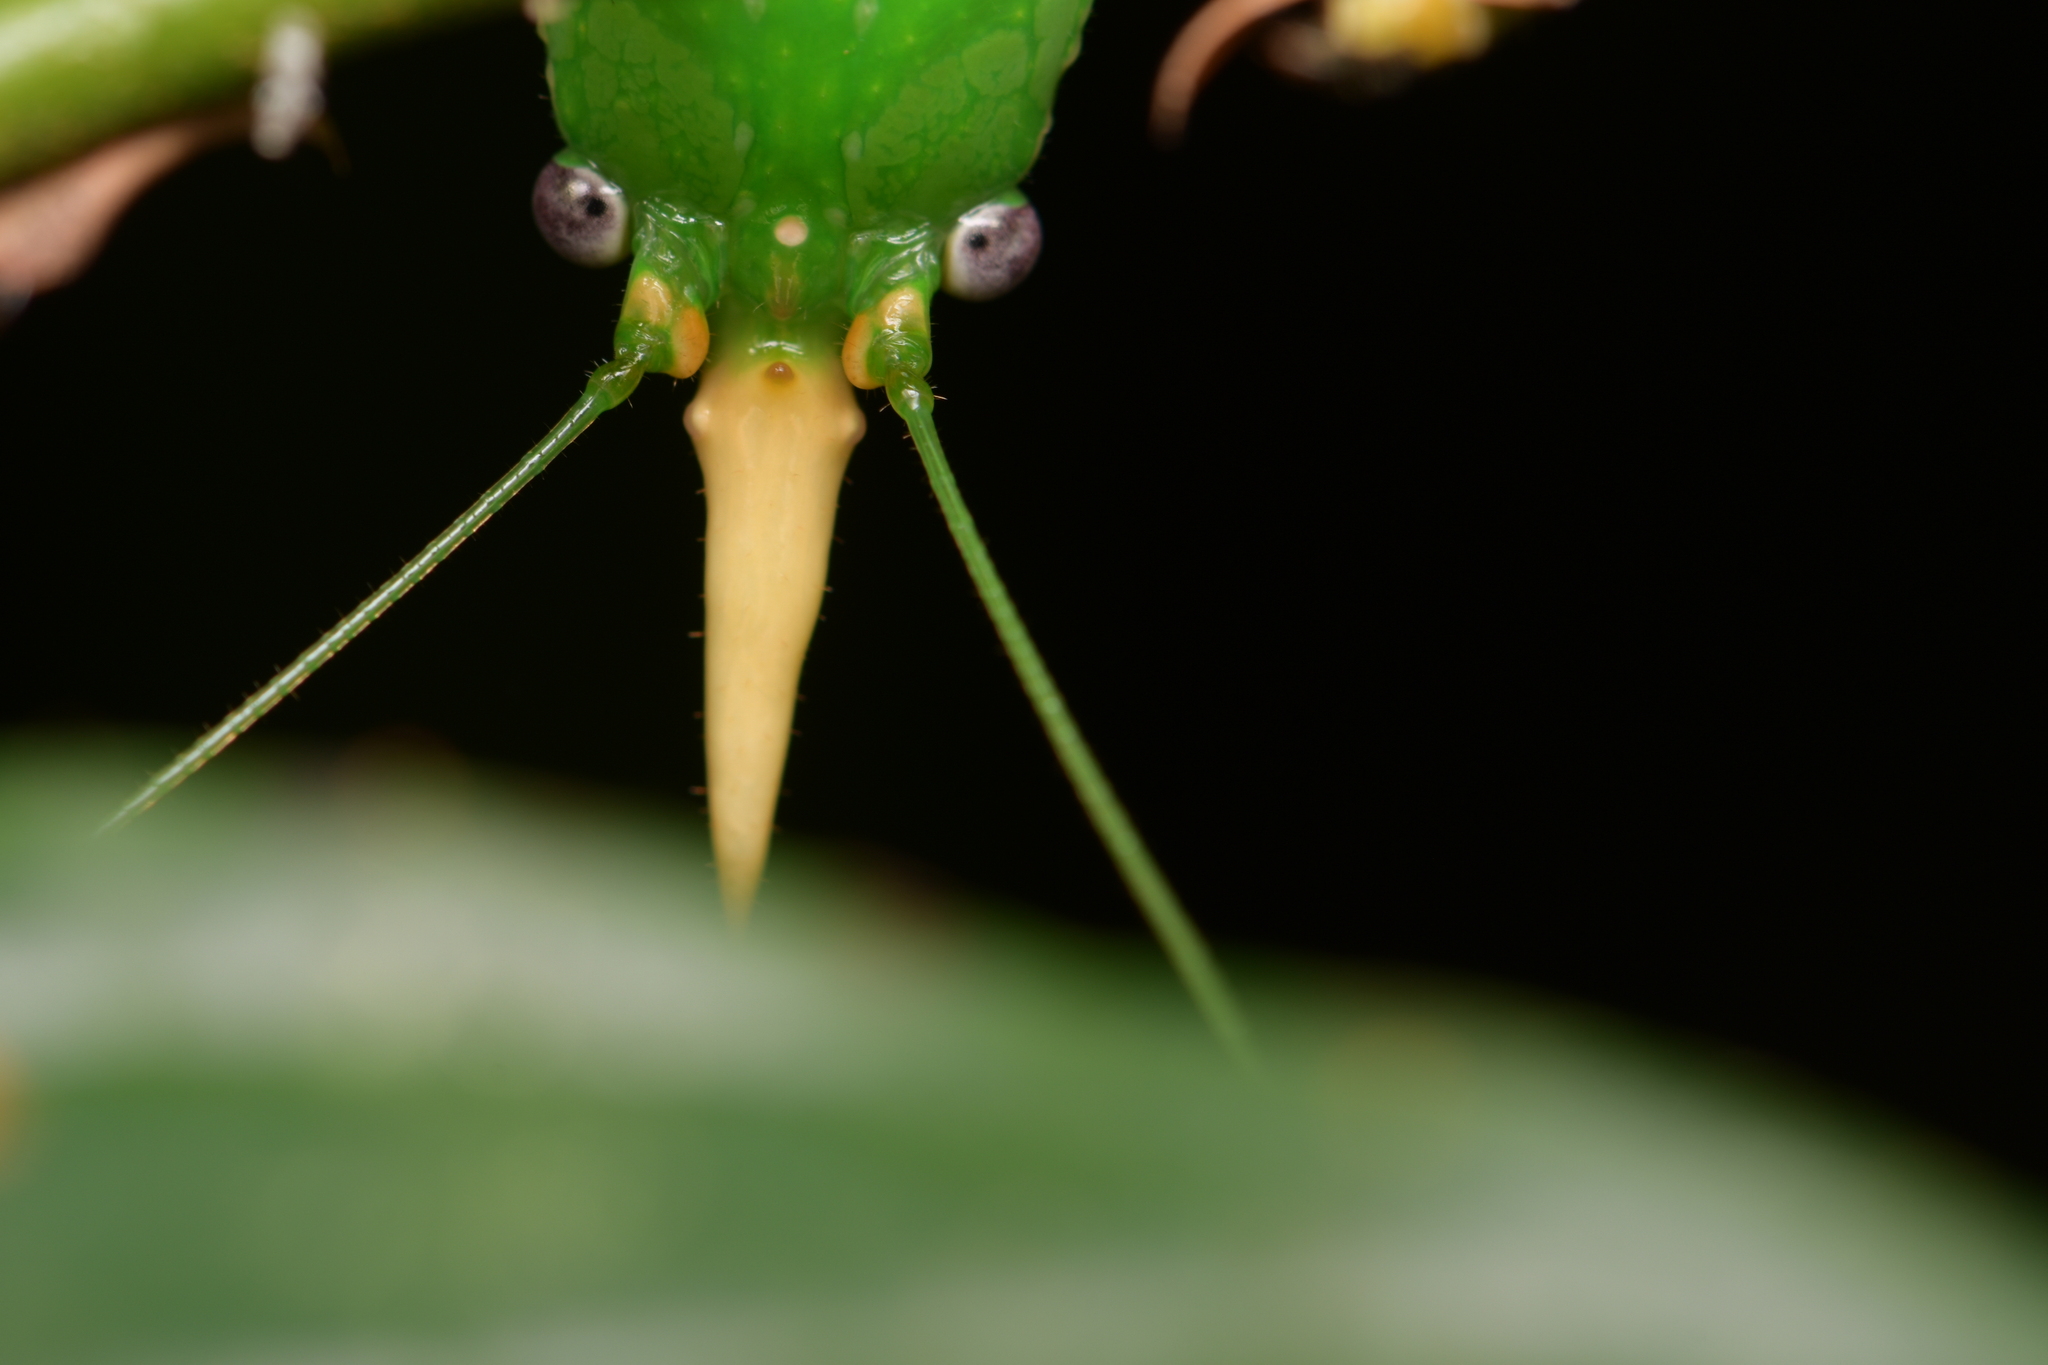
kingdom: Animalia
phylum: Arthropoda
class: Insecta
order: Orthoptera
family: Tettigoniidae
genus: Copiphora
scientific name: Copiphora rhinoceros
